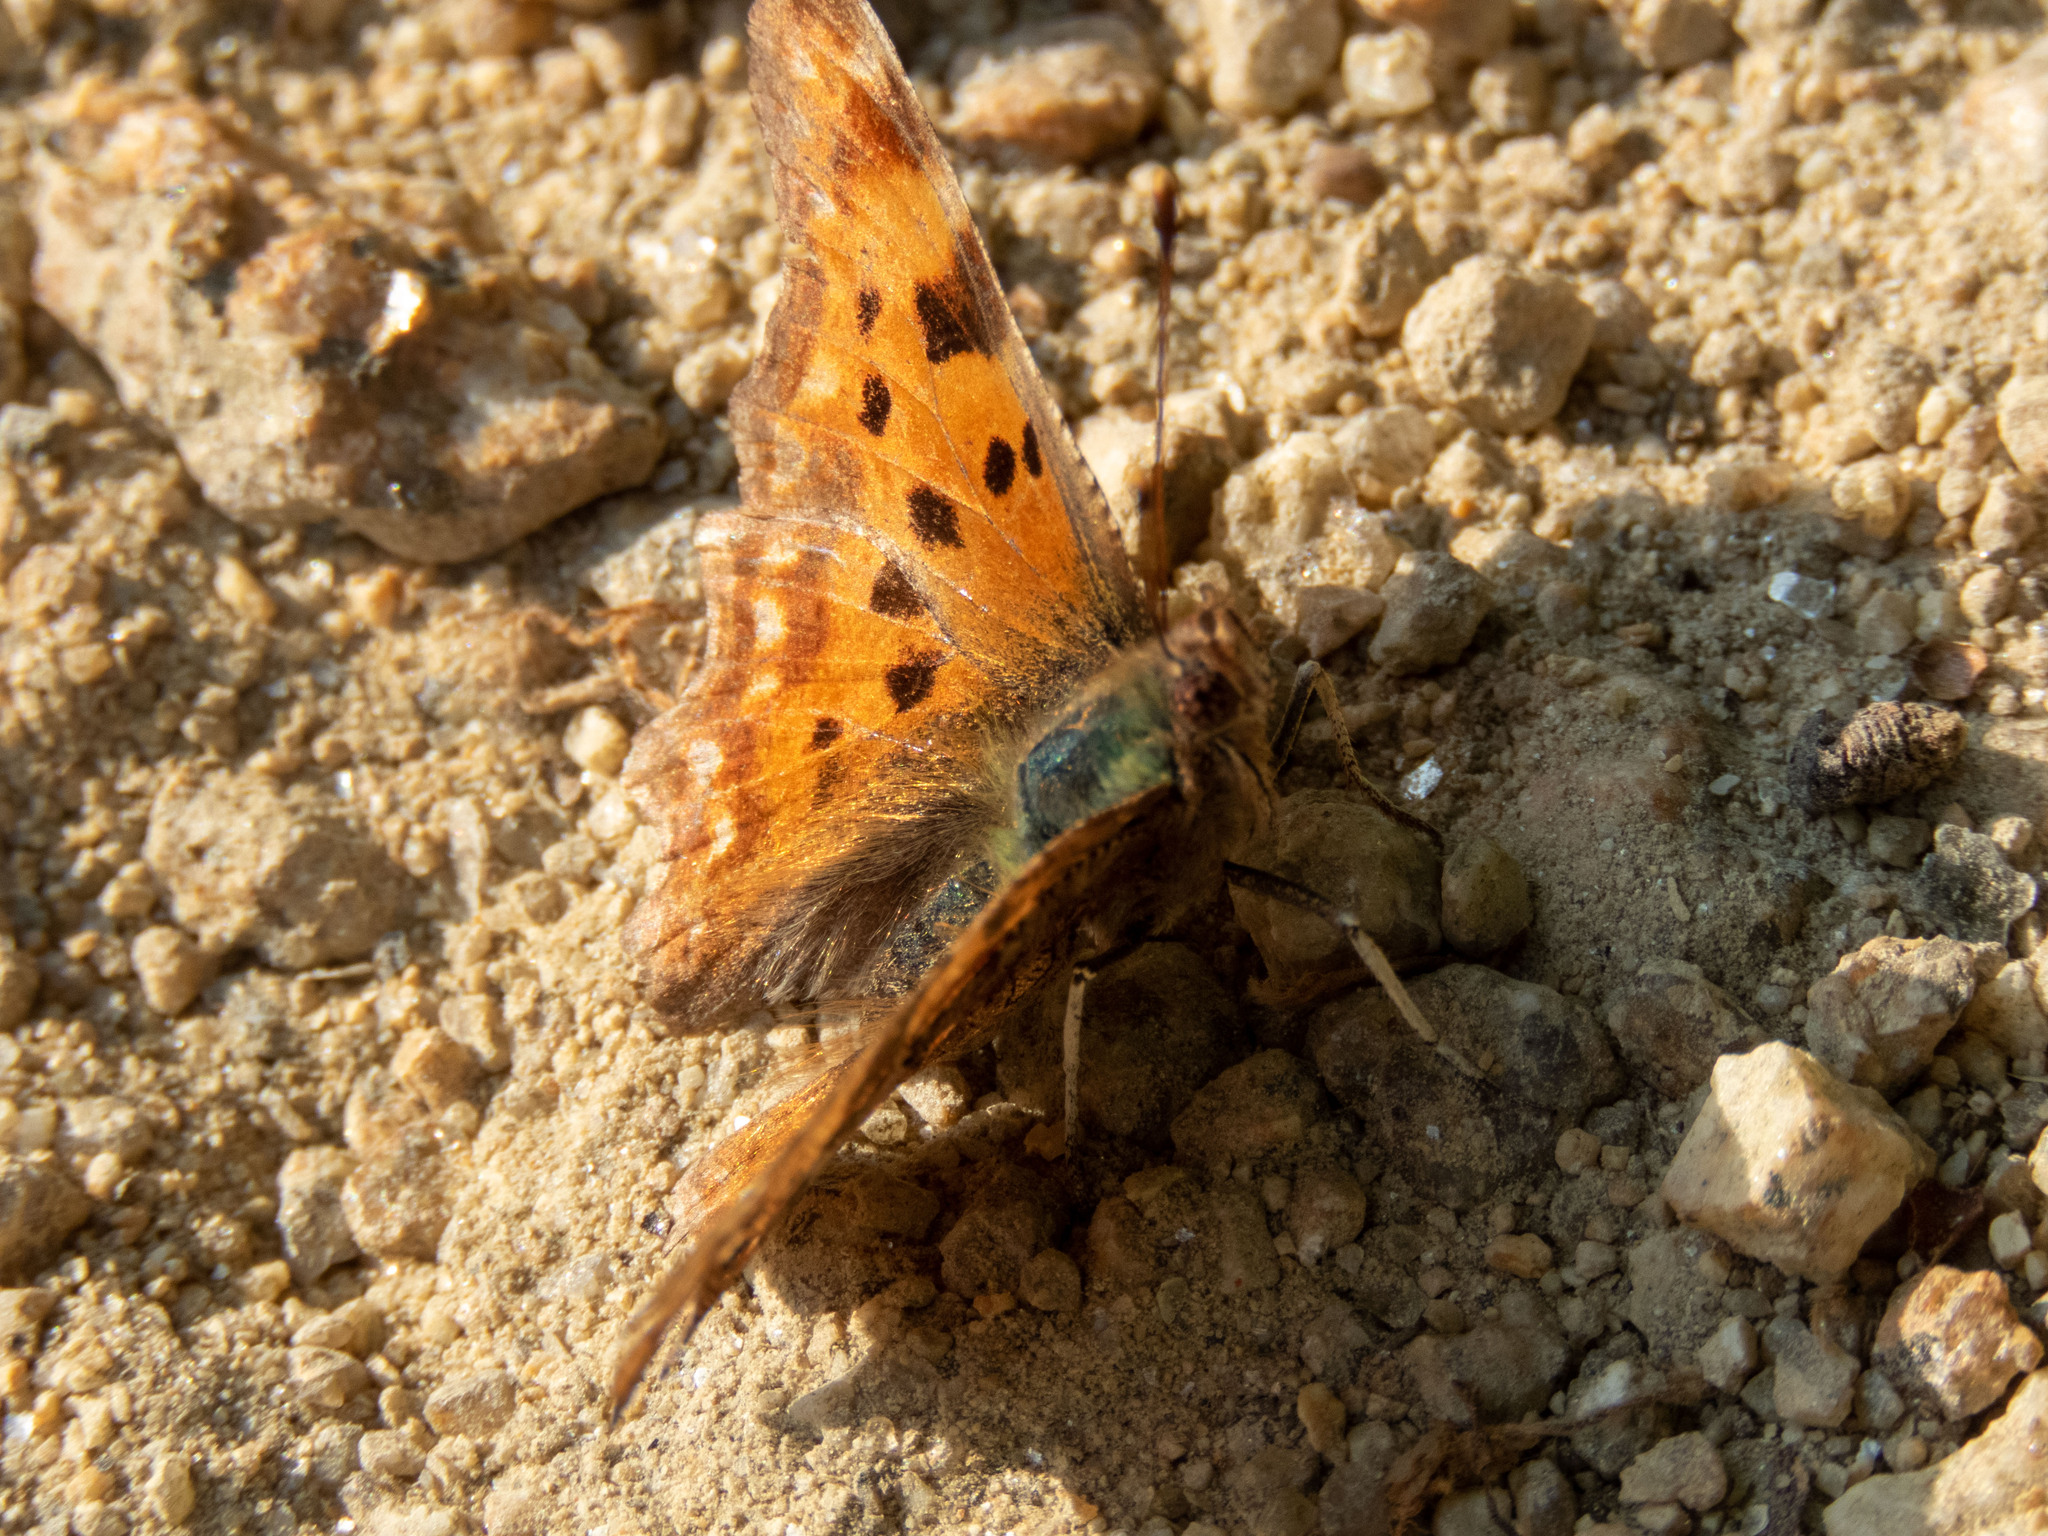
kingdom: Animalia
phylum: Arthropoda
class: Insecta
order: Lepidoptera
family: Nymphalidae
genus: Polygonia
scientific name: Polygonia c-album
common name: Comma
